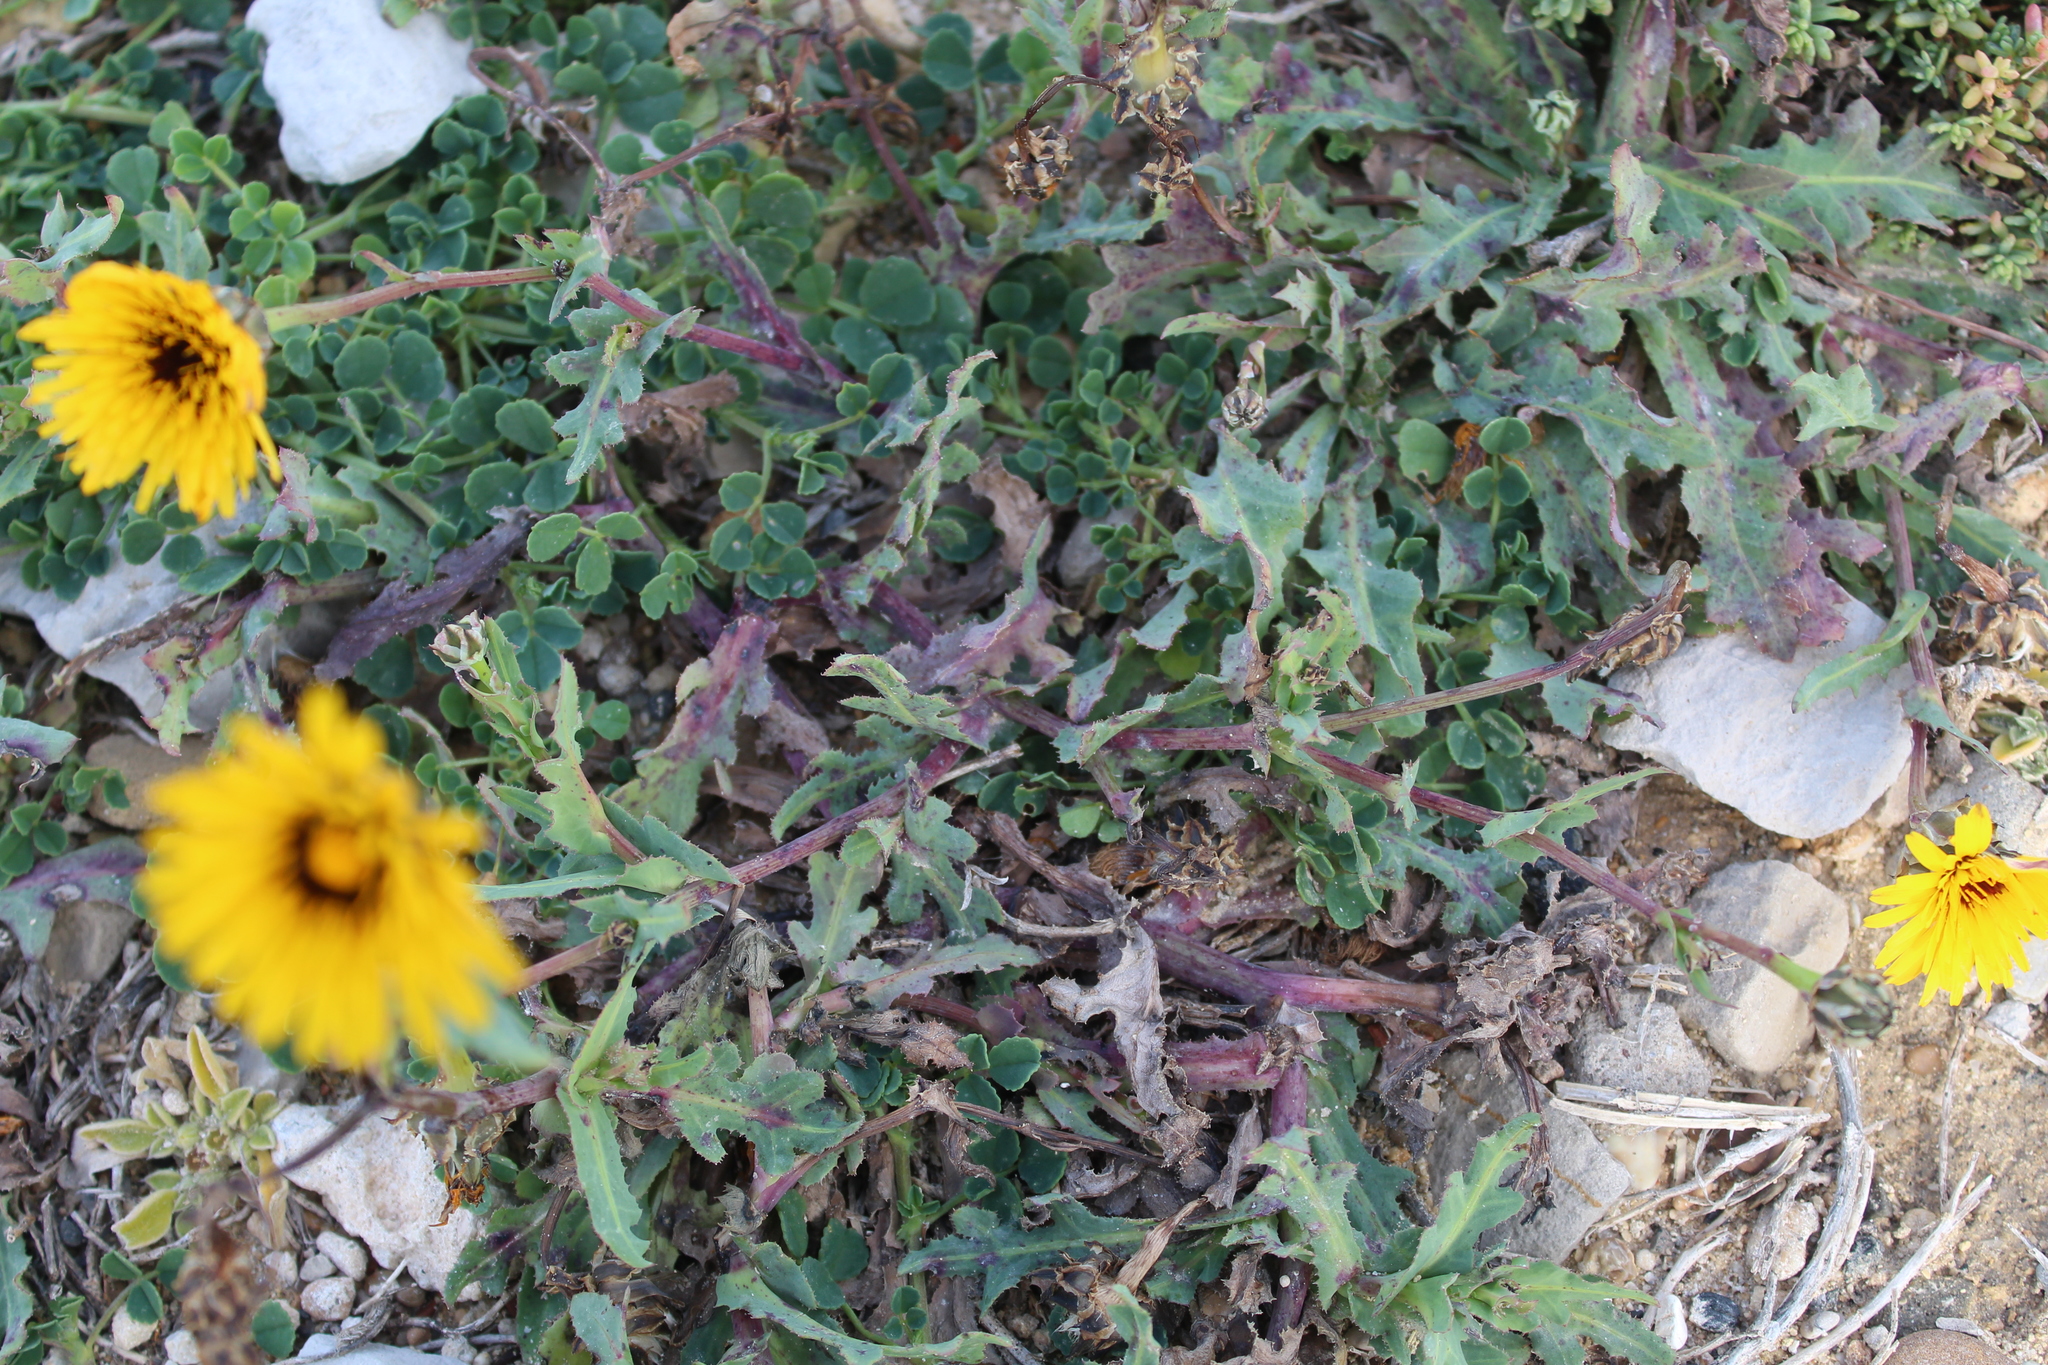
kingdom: Plantae
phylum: Tracheophyta
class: Magnoliopsida
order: Asterales
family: Asteraceae
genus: Taraxacum
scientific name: Taraxacum officinale
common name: Common dandelion
